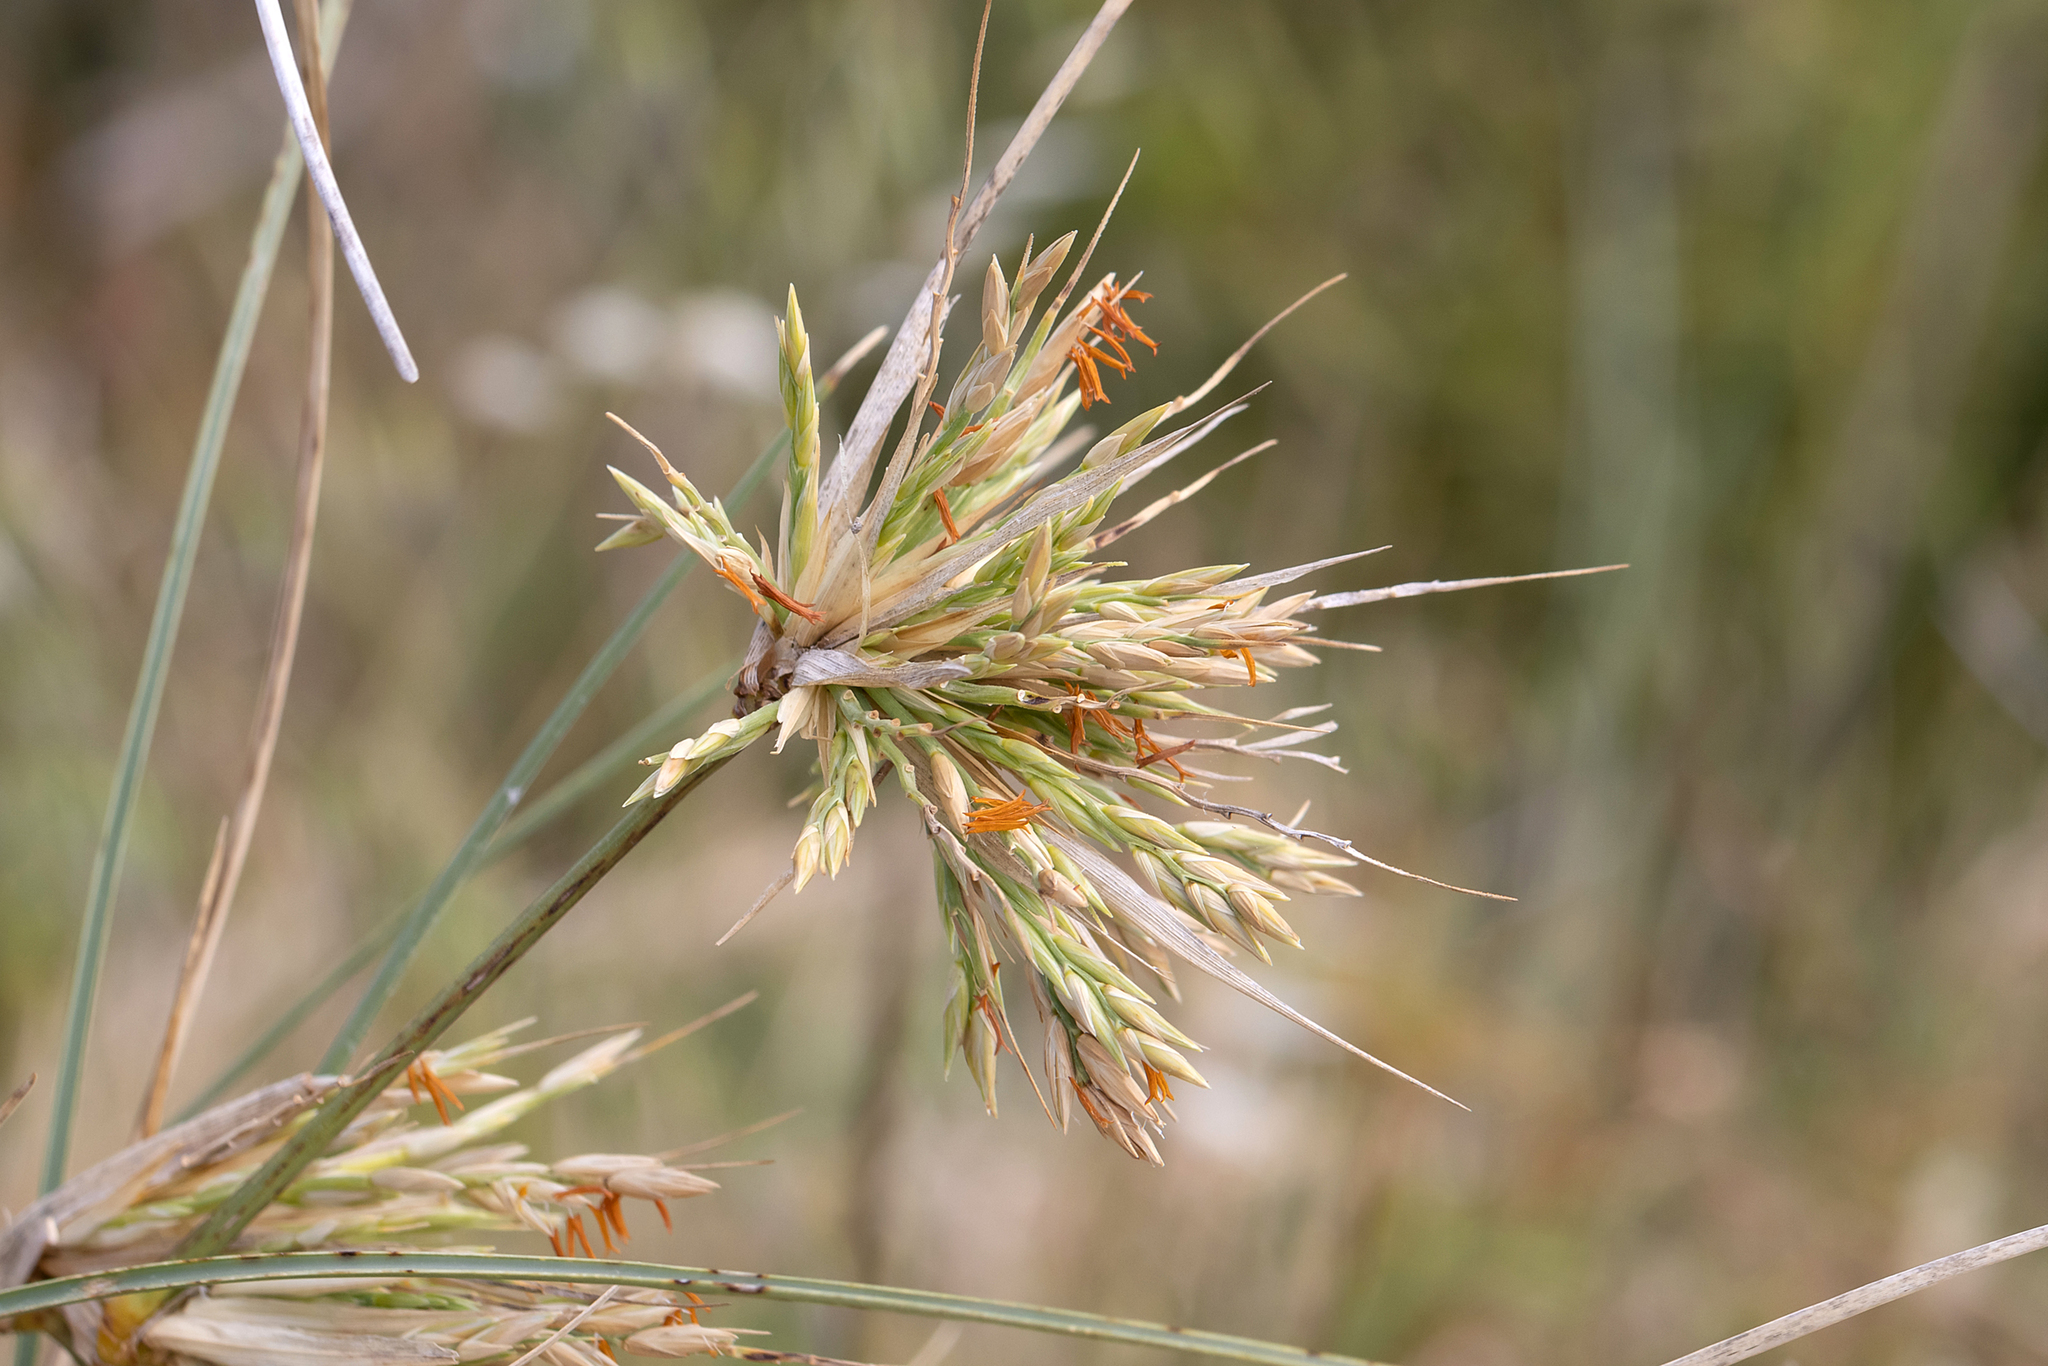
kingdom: Plantae
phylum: Tracheophyta
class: Liliopsida
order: Poales
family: Poaceae
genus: Spinifex
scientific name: Spinifex longifolius
